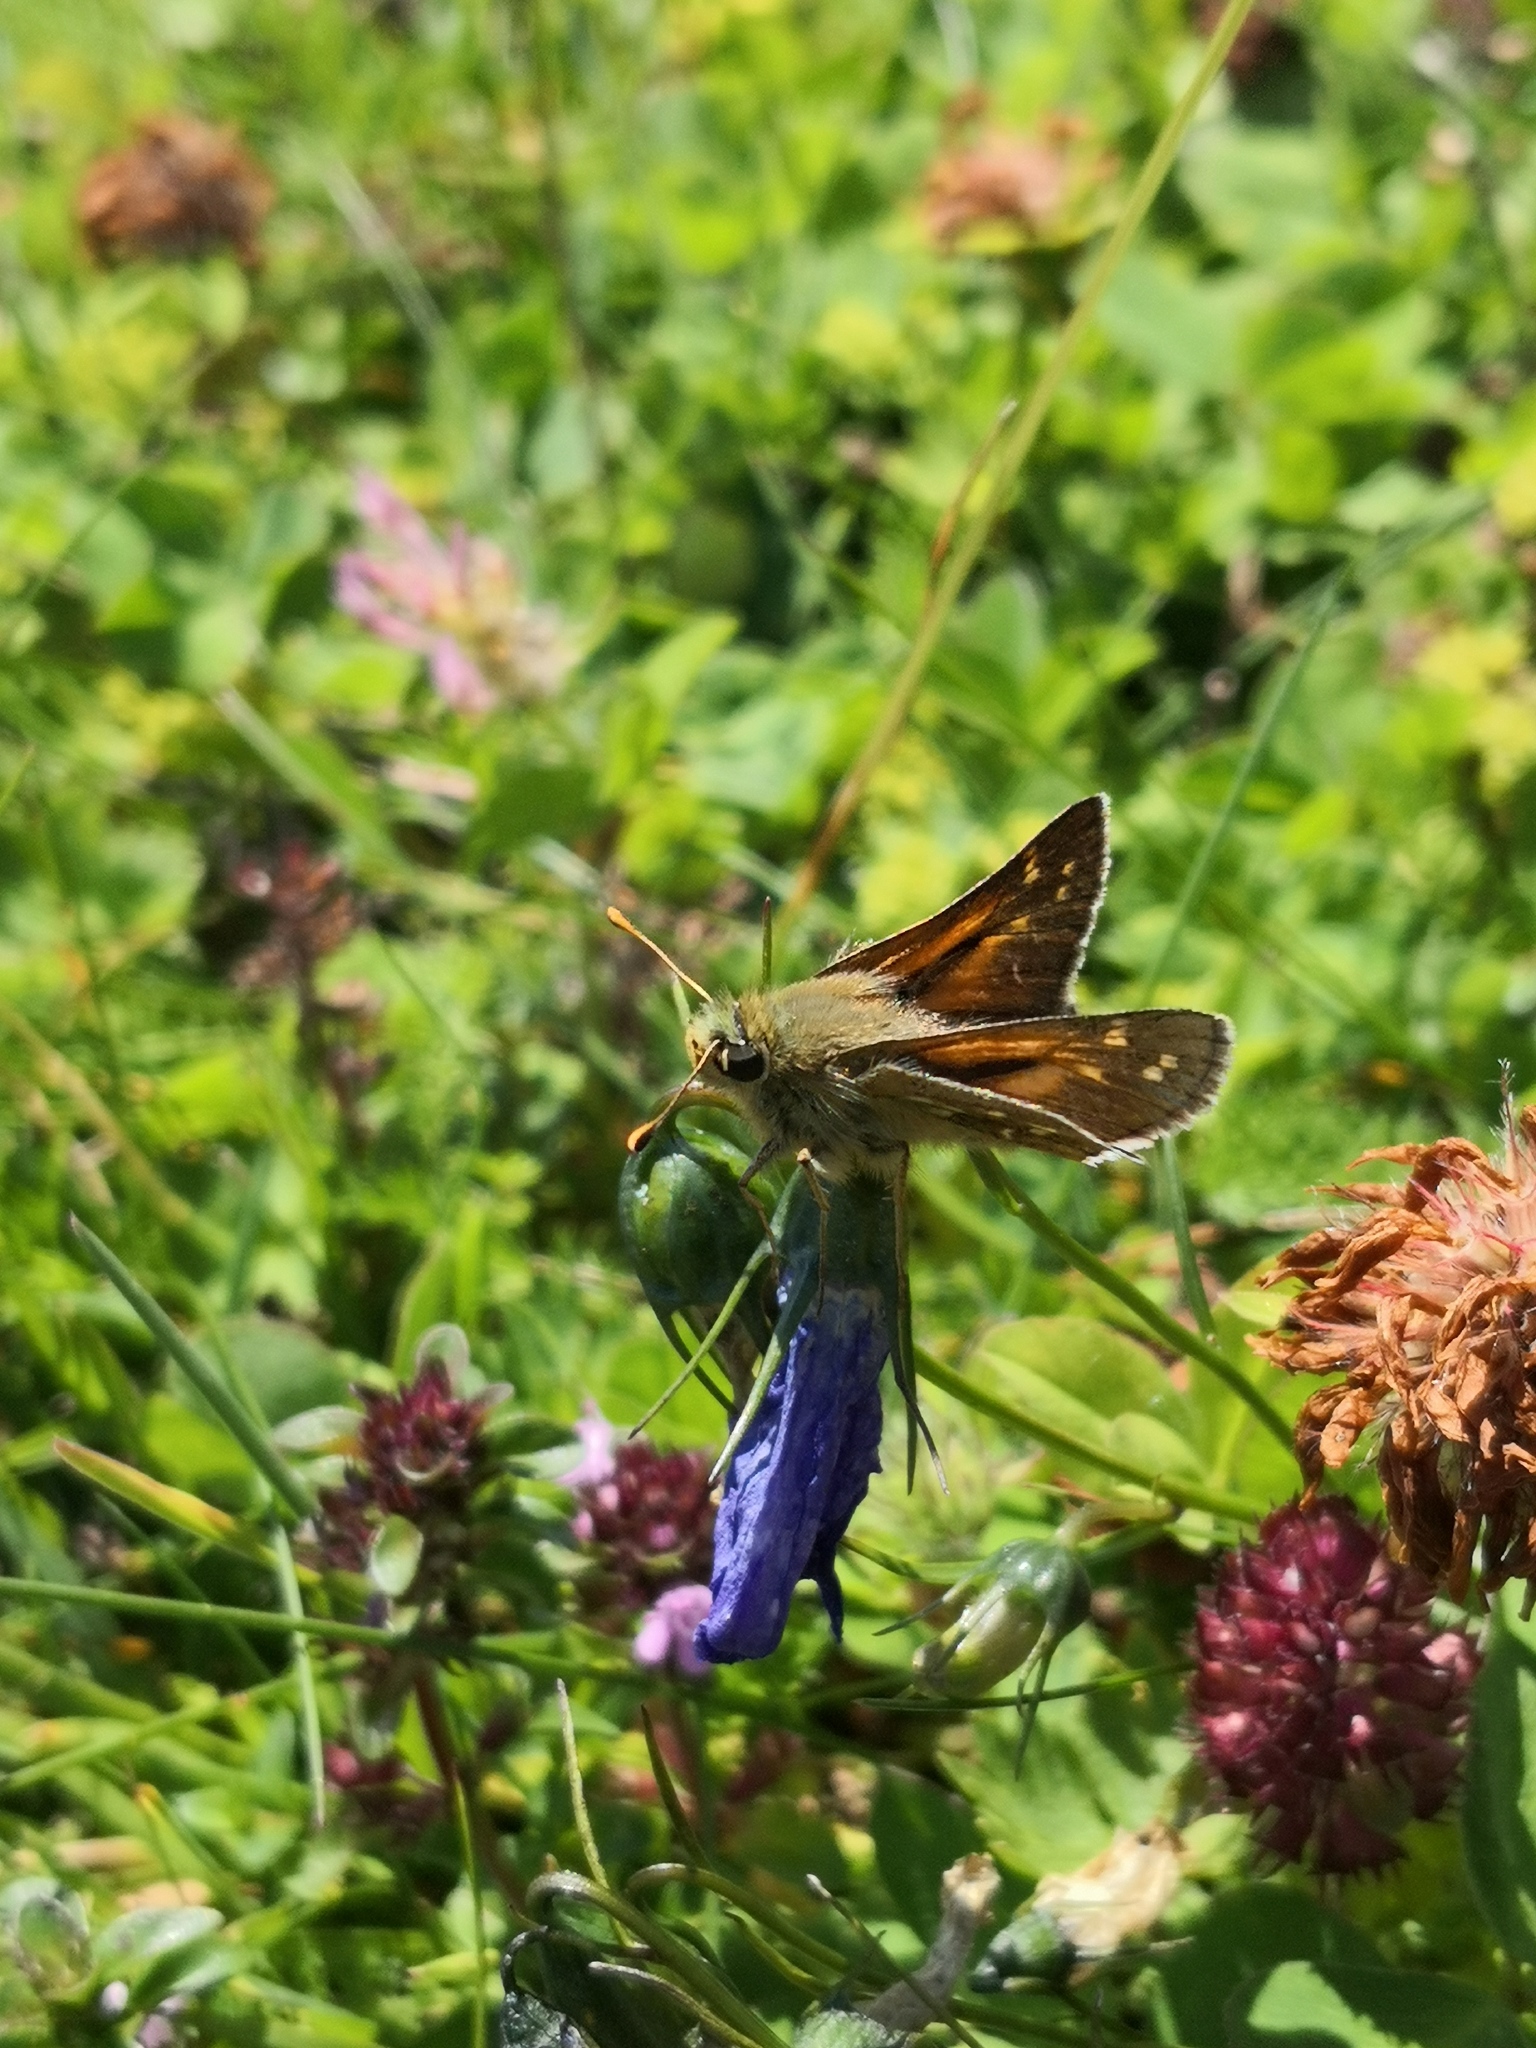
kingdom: Animalia
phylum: Arthropoda
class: Insecta
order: Lepidoptera
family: Hesperiidae
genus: Hesperia
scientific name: Hesperia comma
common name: Common branded skipper
